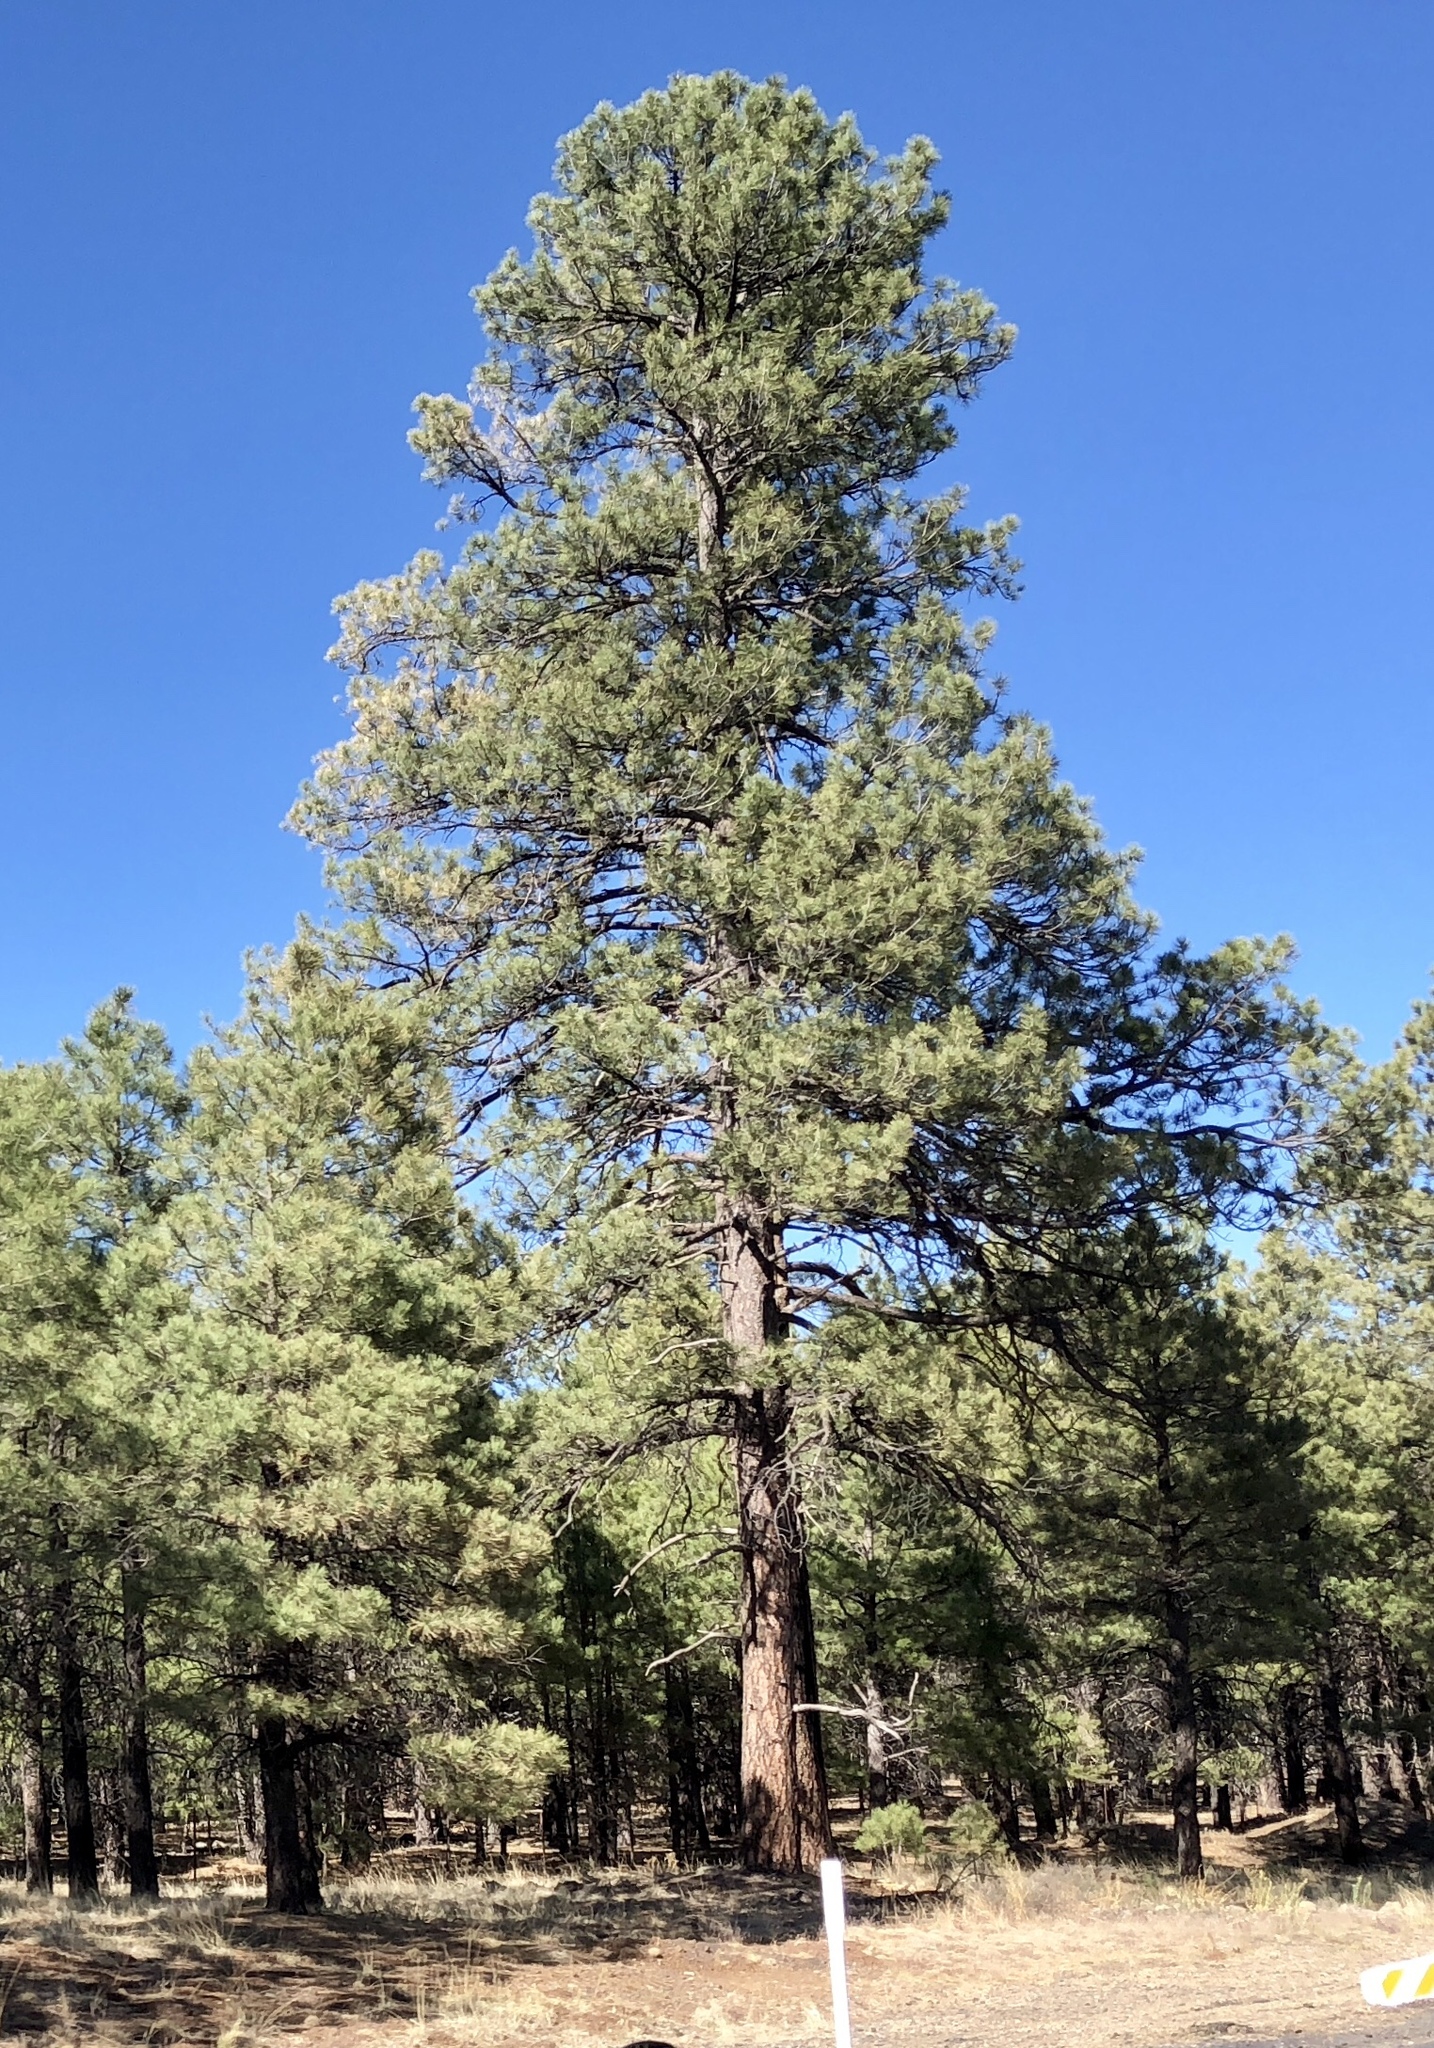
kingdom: Plantae
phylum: Tracheophyta
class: Pinopsida
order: Pinales
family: Pinaceae
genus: Pinus
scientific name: Pinus ponderosa
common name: Western yellow-pine
